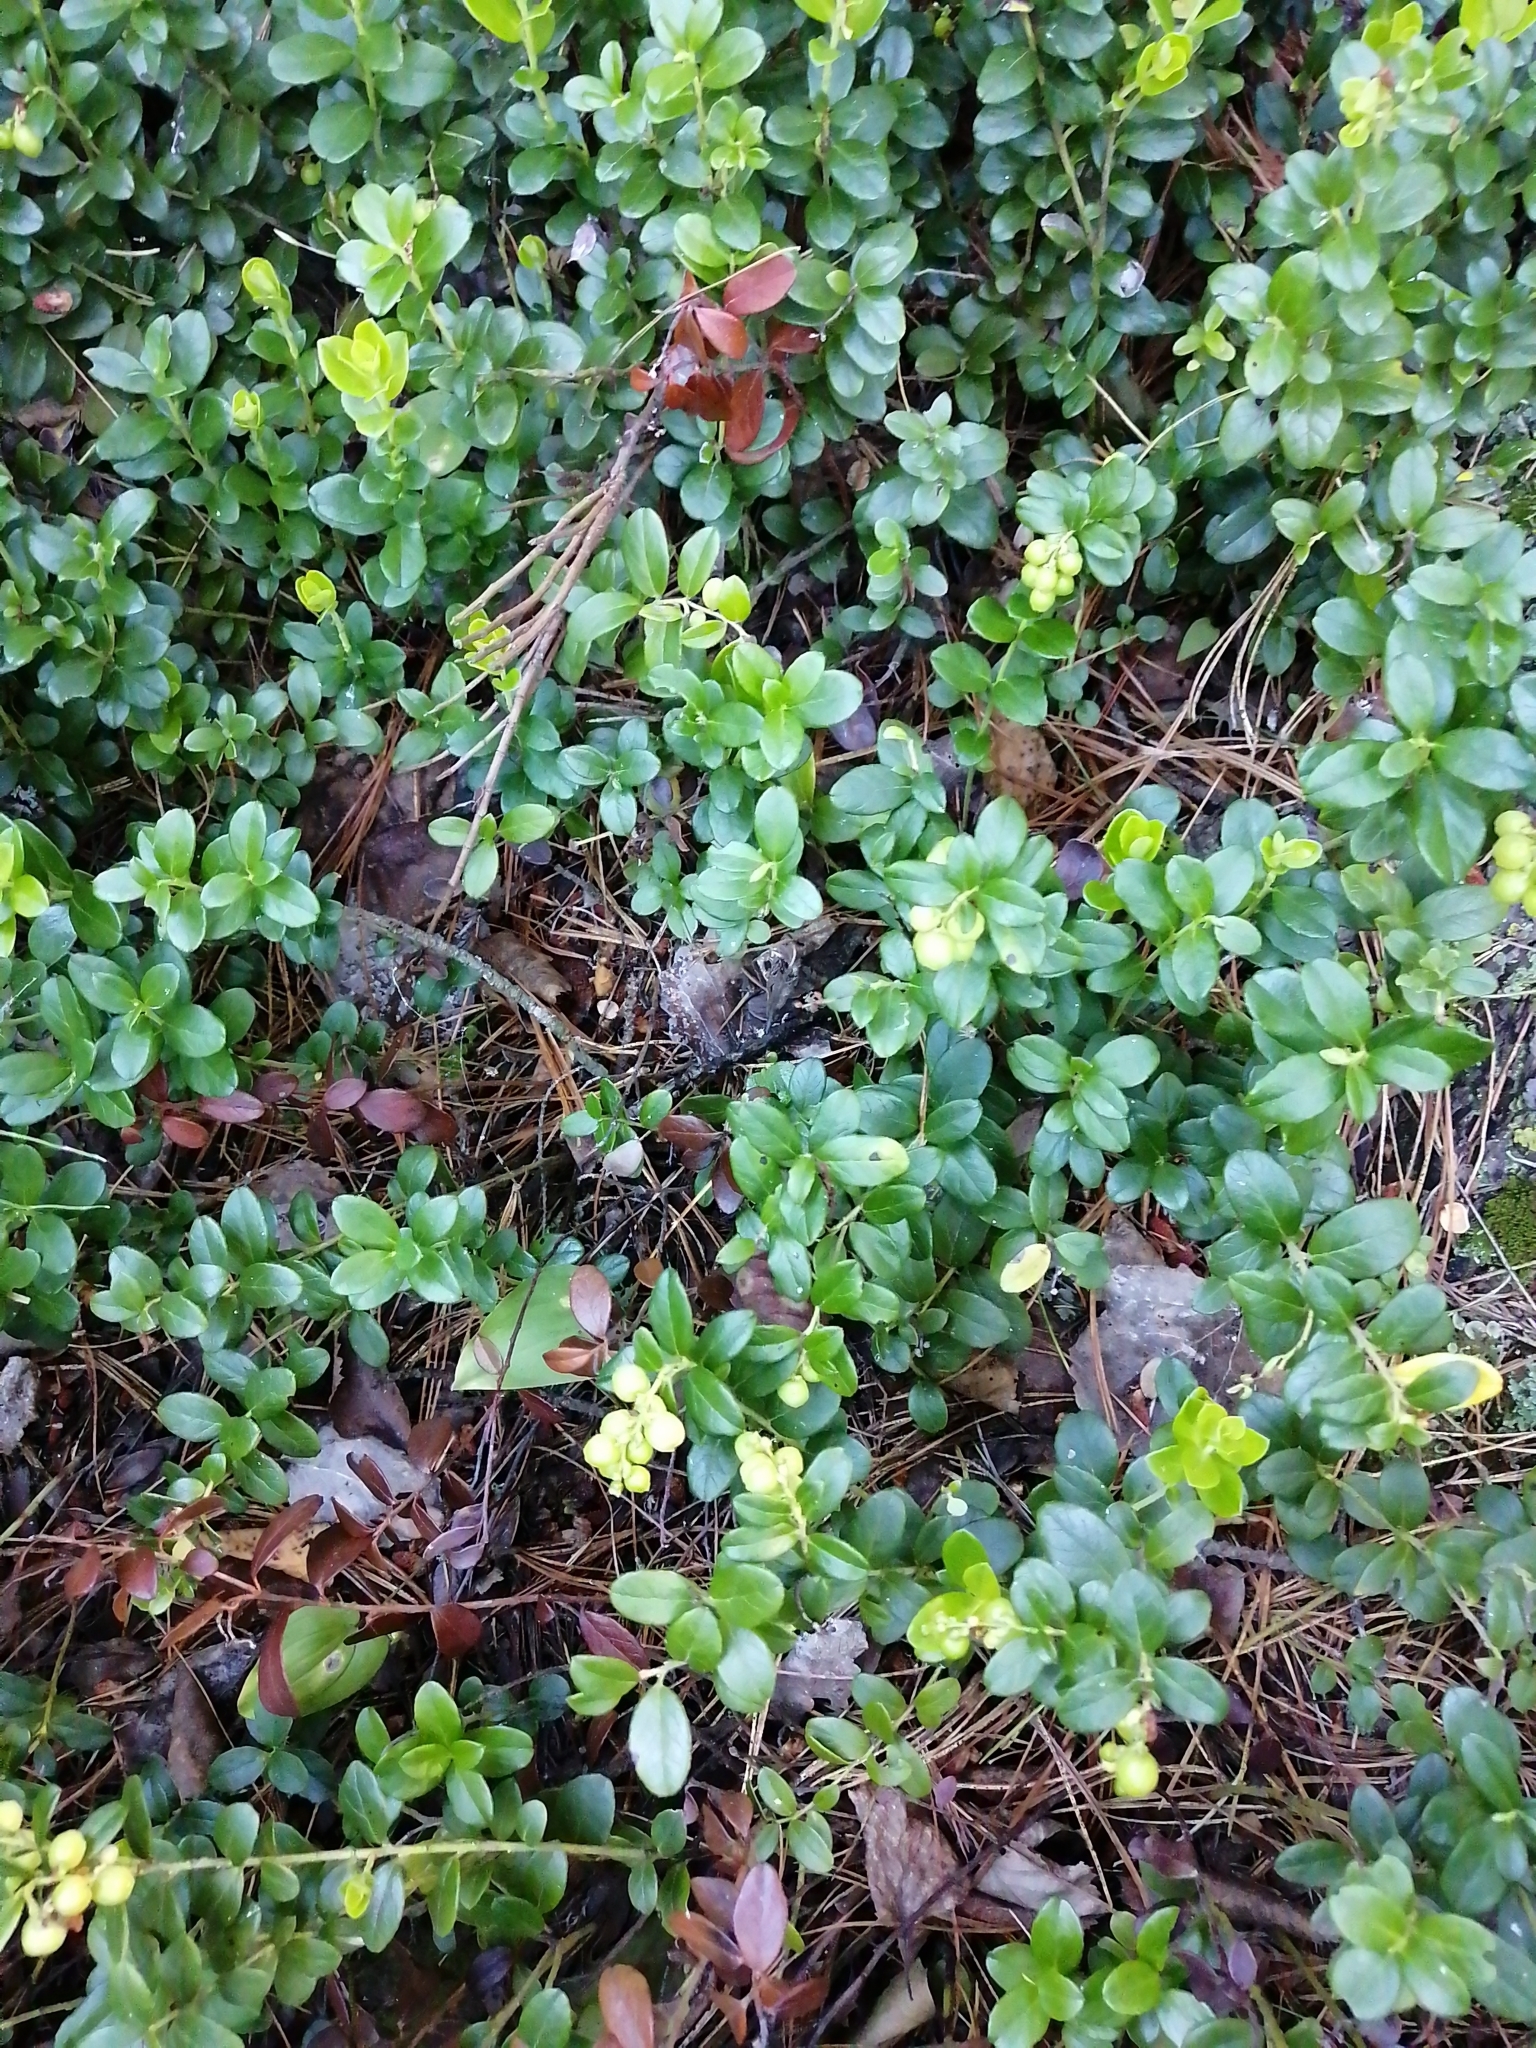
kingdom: Plantae
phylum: Tracheophyta
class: Magnoliopsida
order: Ericales
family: Ericaceae
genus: Vaccinium
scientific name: Vaccinium vitis-idaea
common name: Cowberry
